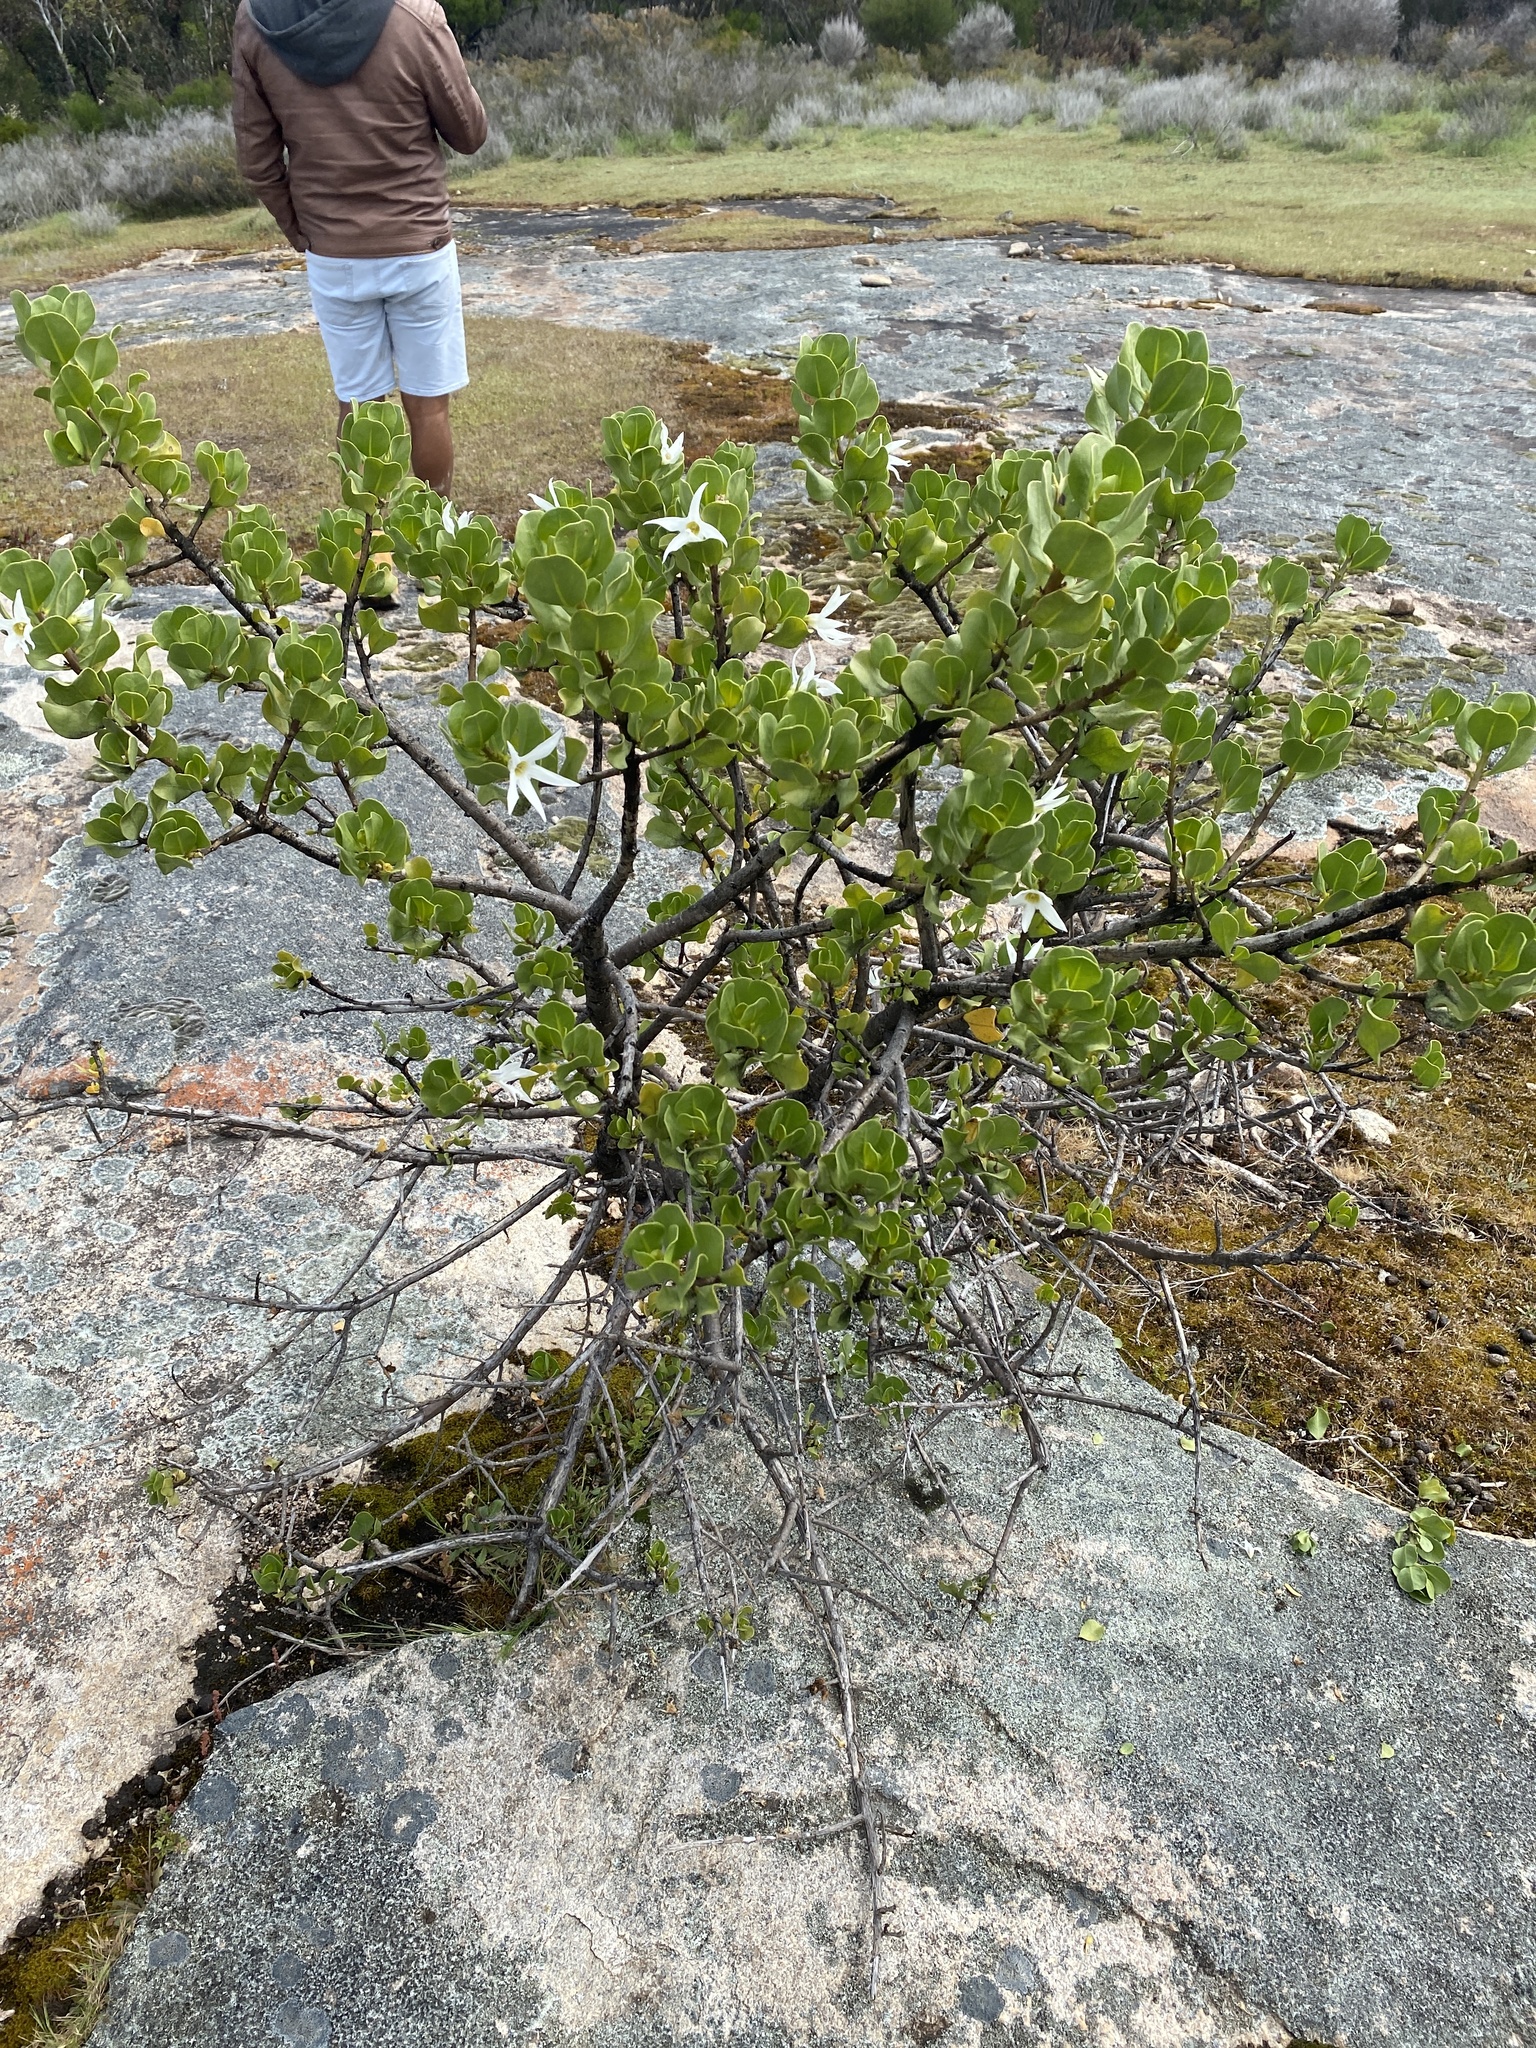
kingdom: Plantae
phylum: Tracheophyta
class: Magnoliopsida
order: Solanales
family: Solanaceae
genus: Anthocercis
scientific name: Anthocercis viscosa
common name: Sticky tailflower
